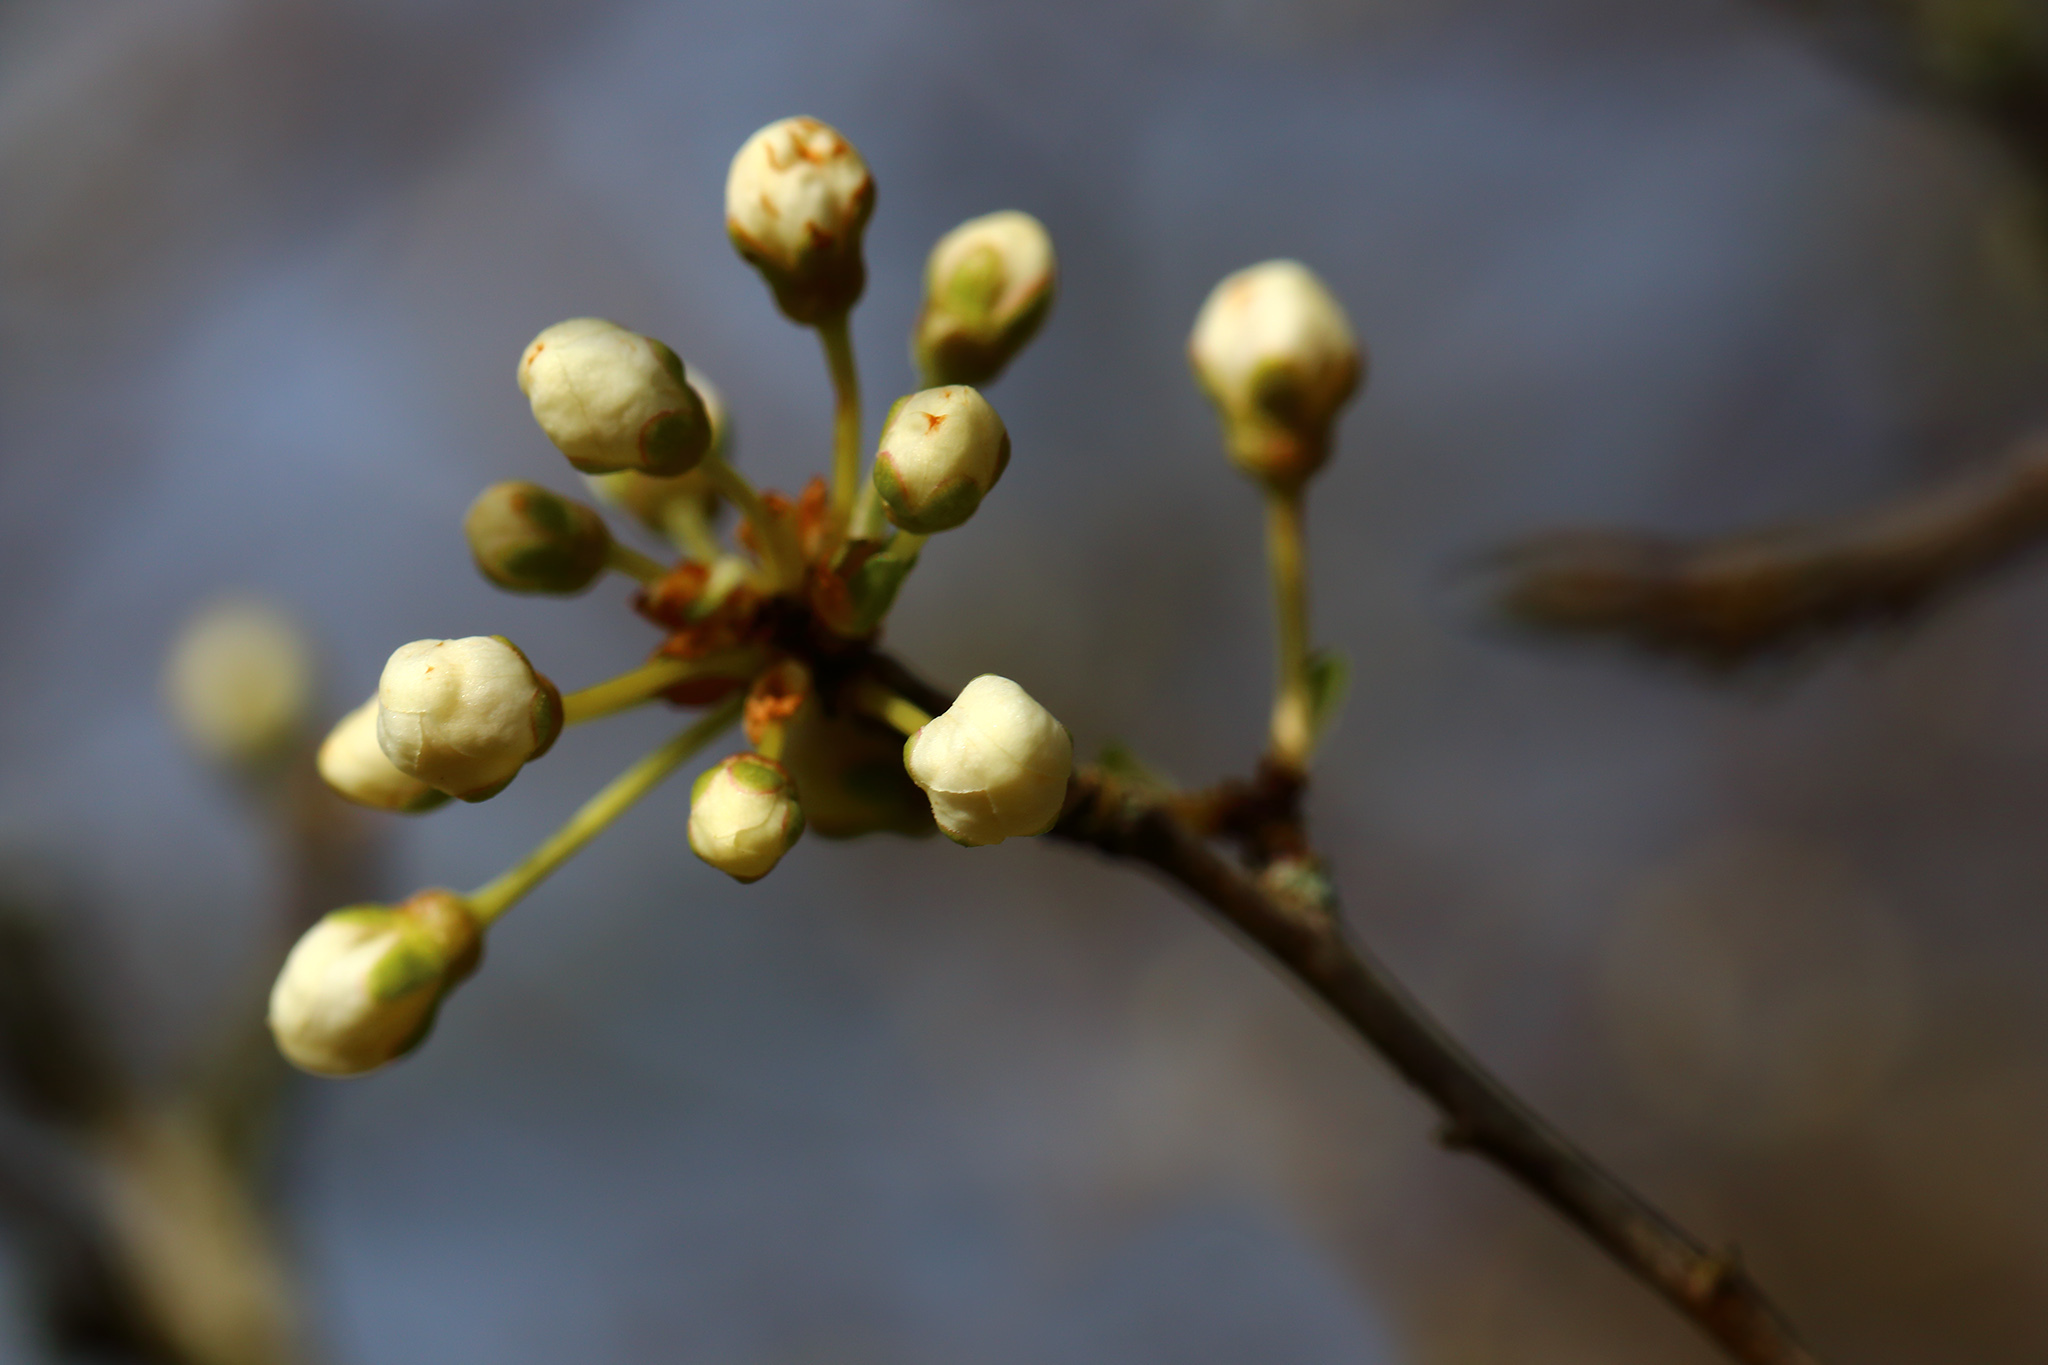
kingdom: Plantae
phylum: Tracheophyta
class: Magnoliopsida
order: Rosales
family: Rosaceae
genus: Prunus
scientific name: Prunus cerasifera
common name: Cherry plum
